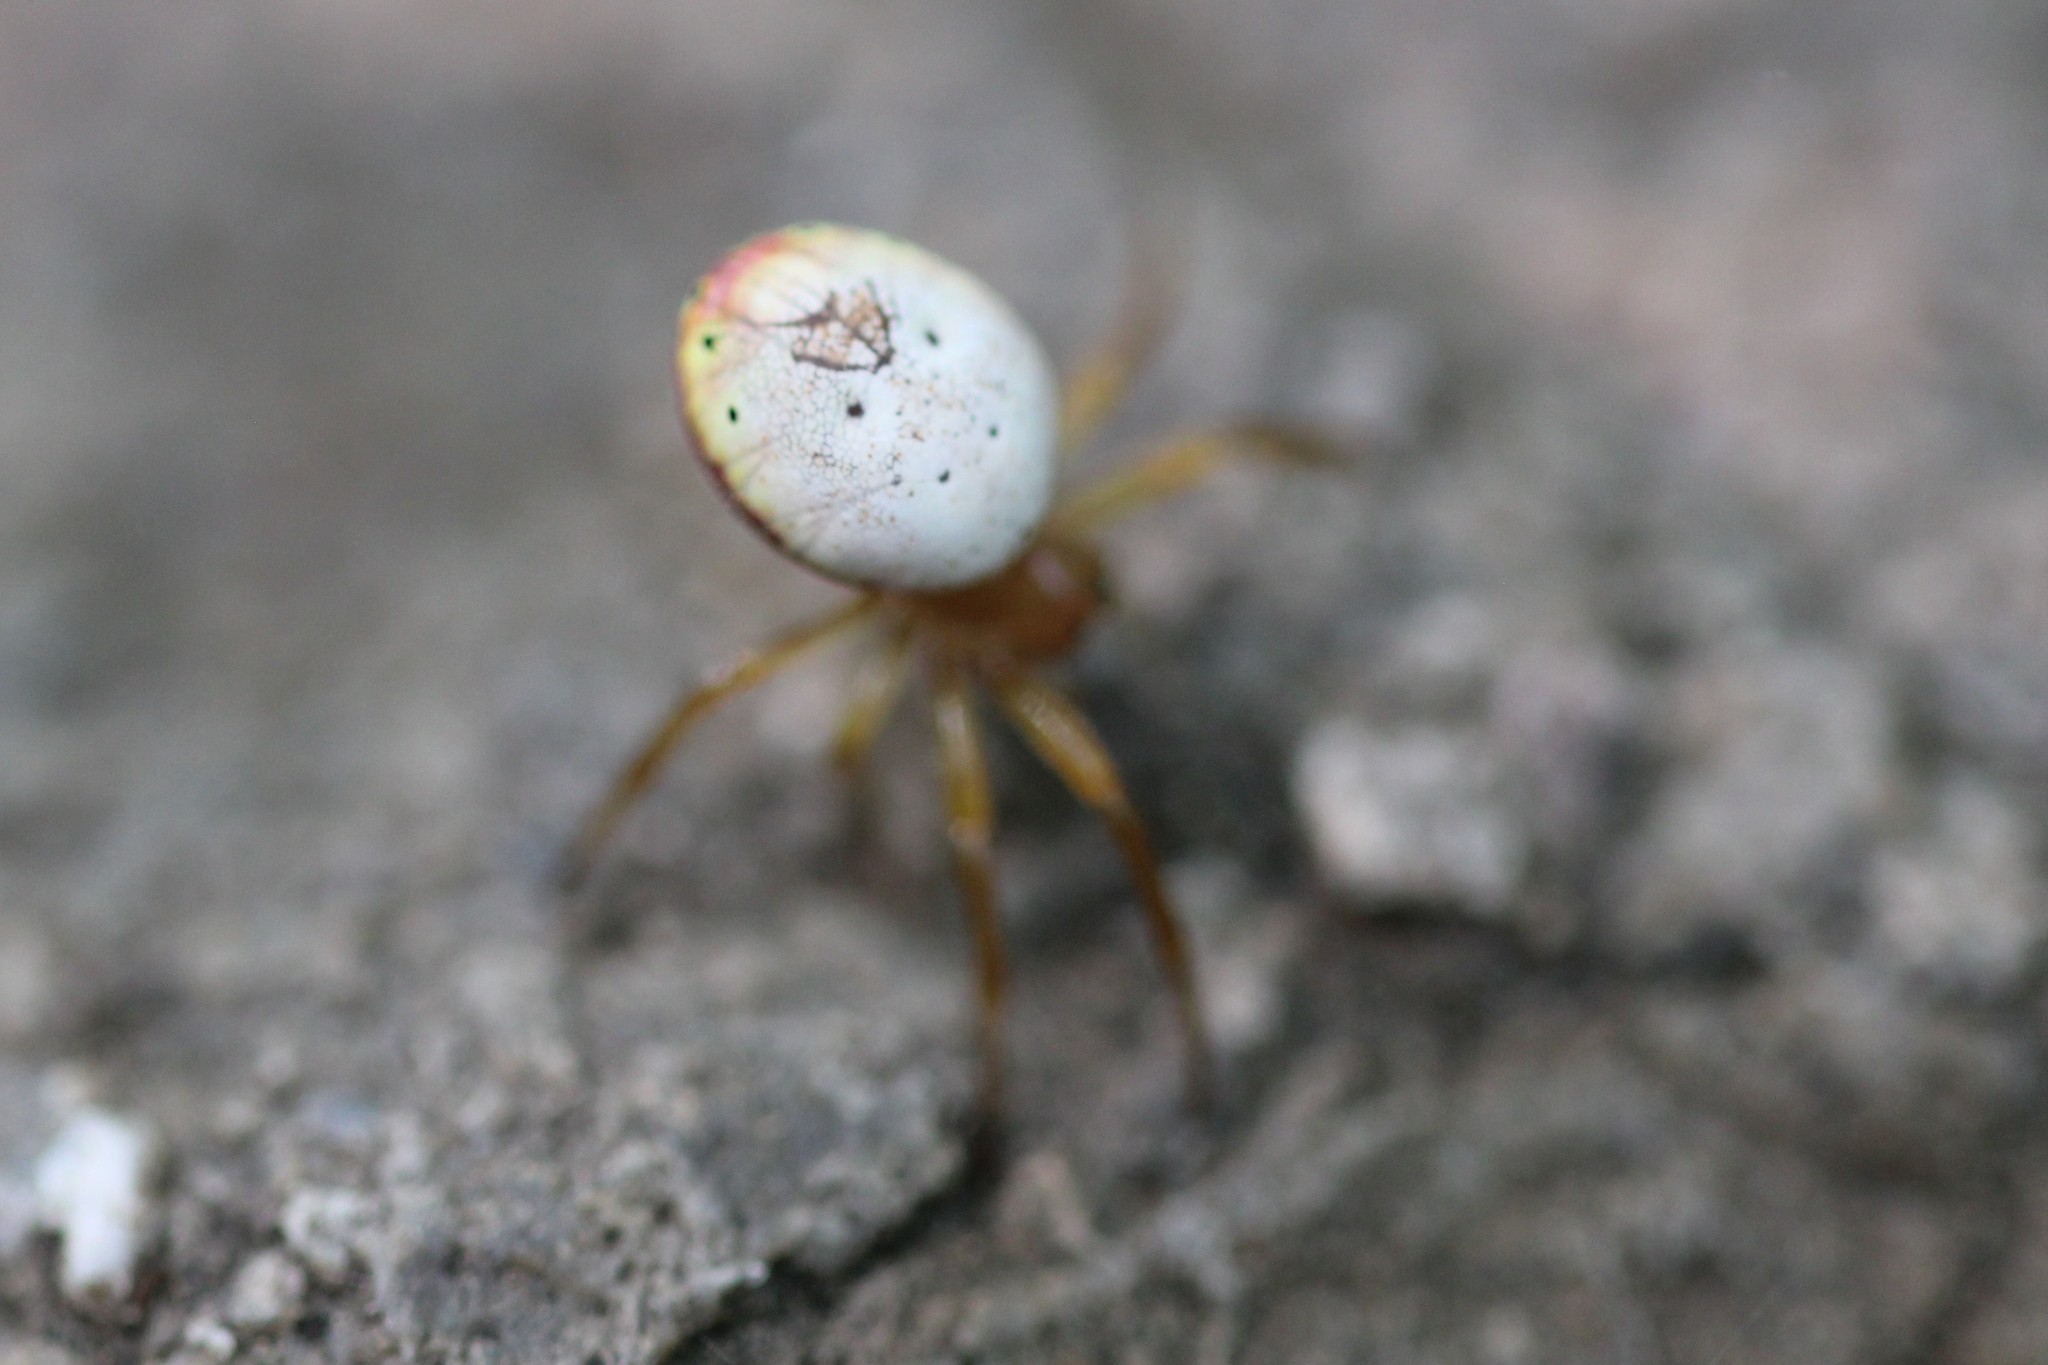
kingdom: Animalia
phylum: Arthropoda
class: Arachnida
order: Araneae
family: Araneidae
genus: Araniella
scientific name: Araniella displicata
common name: Sixspotted orb weaver
